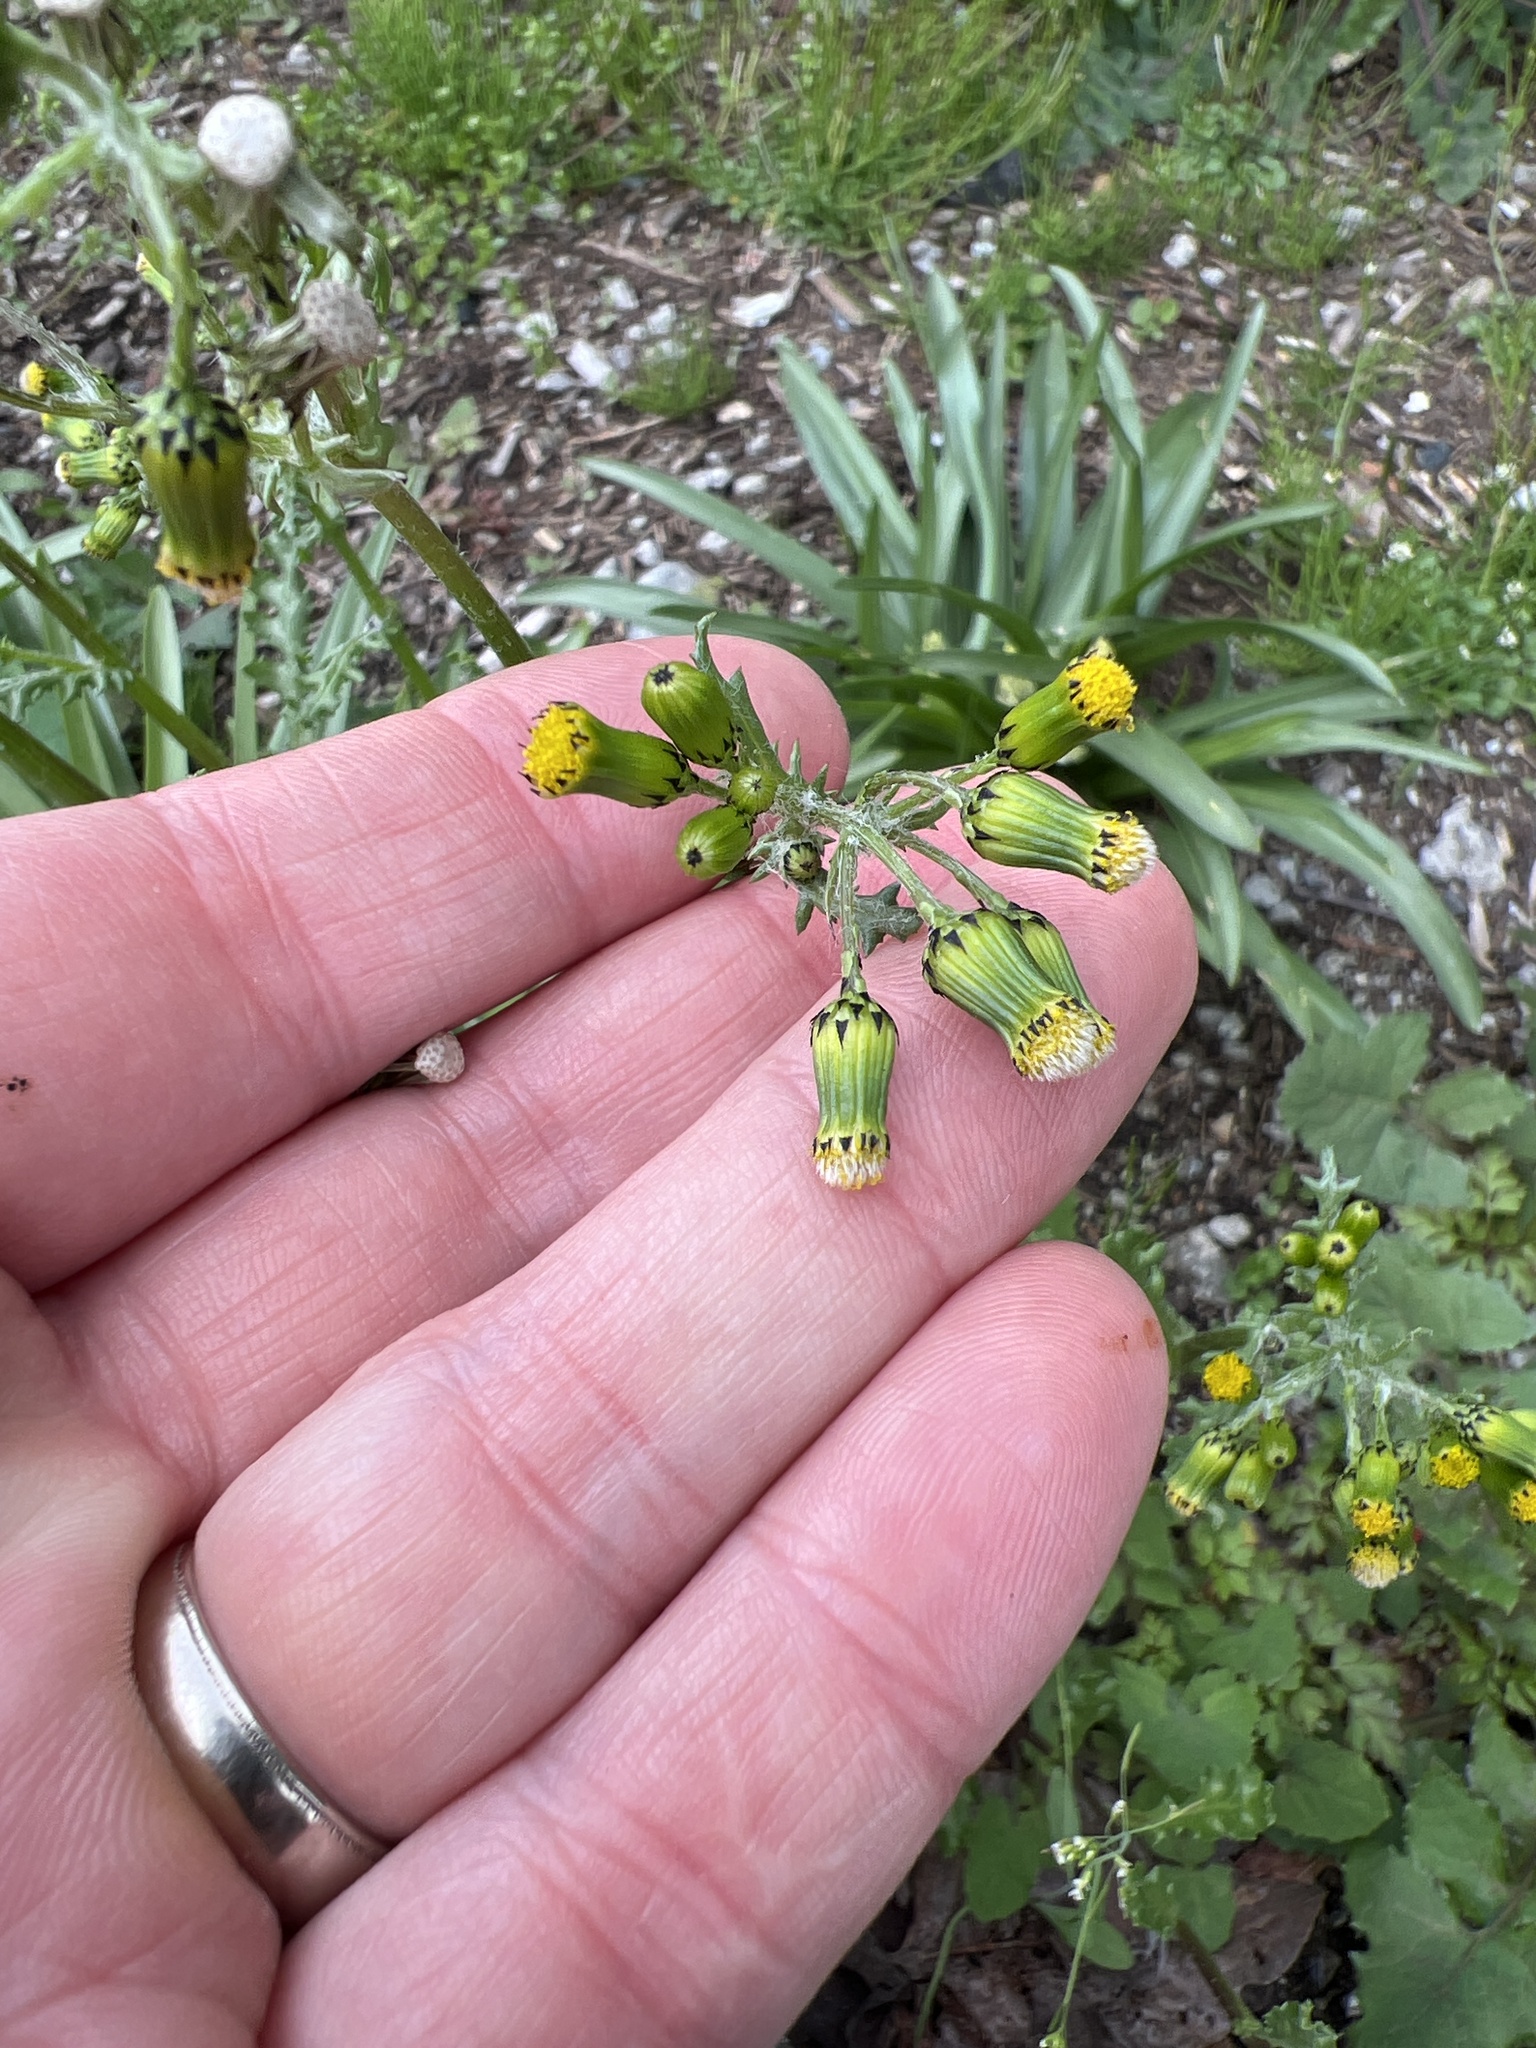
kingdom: Plantae
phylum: Tracheophyta
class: Magnoliopsida
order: Asterales
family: Asteraceae
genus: Senecio
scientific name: Senecio vulgaris
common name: Old-man-in-the-spring
